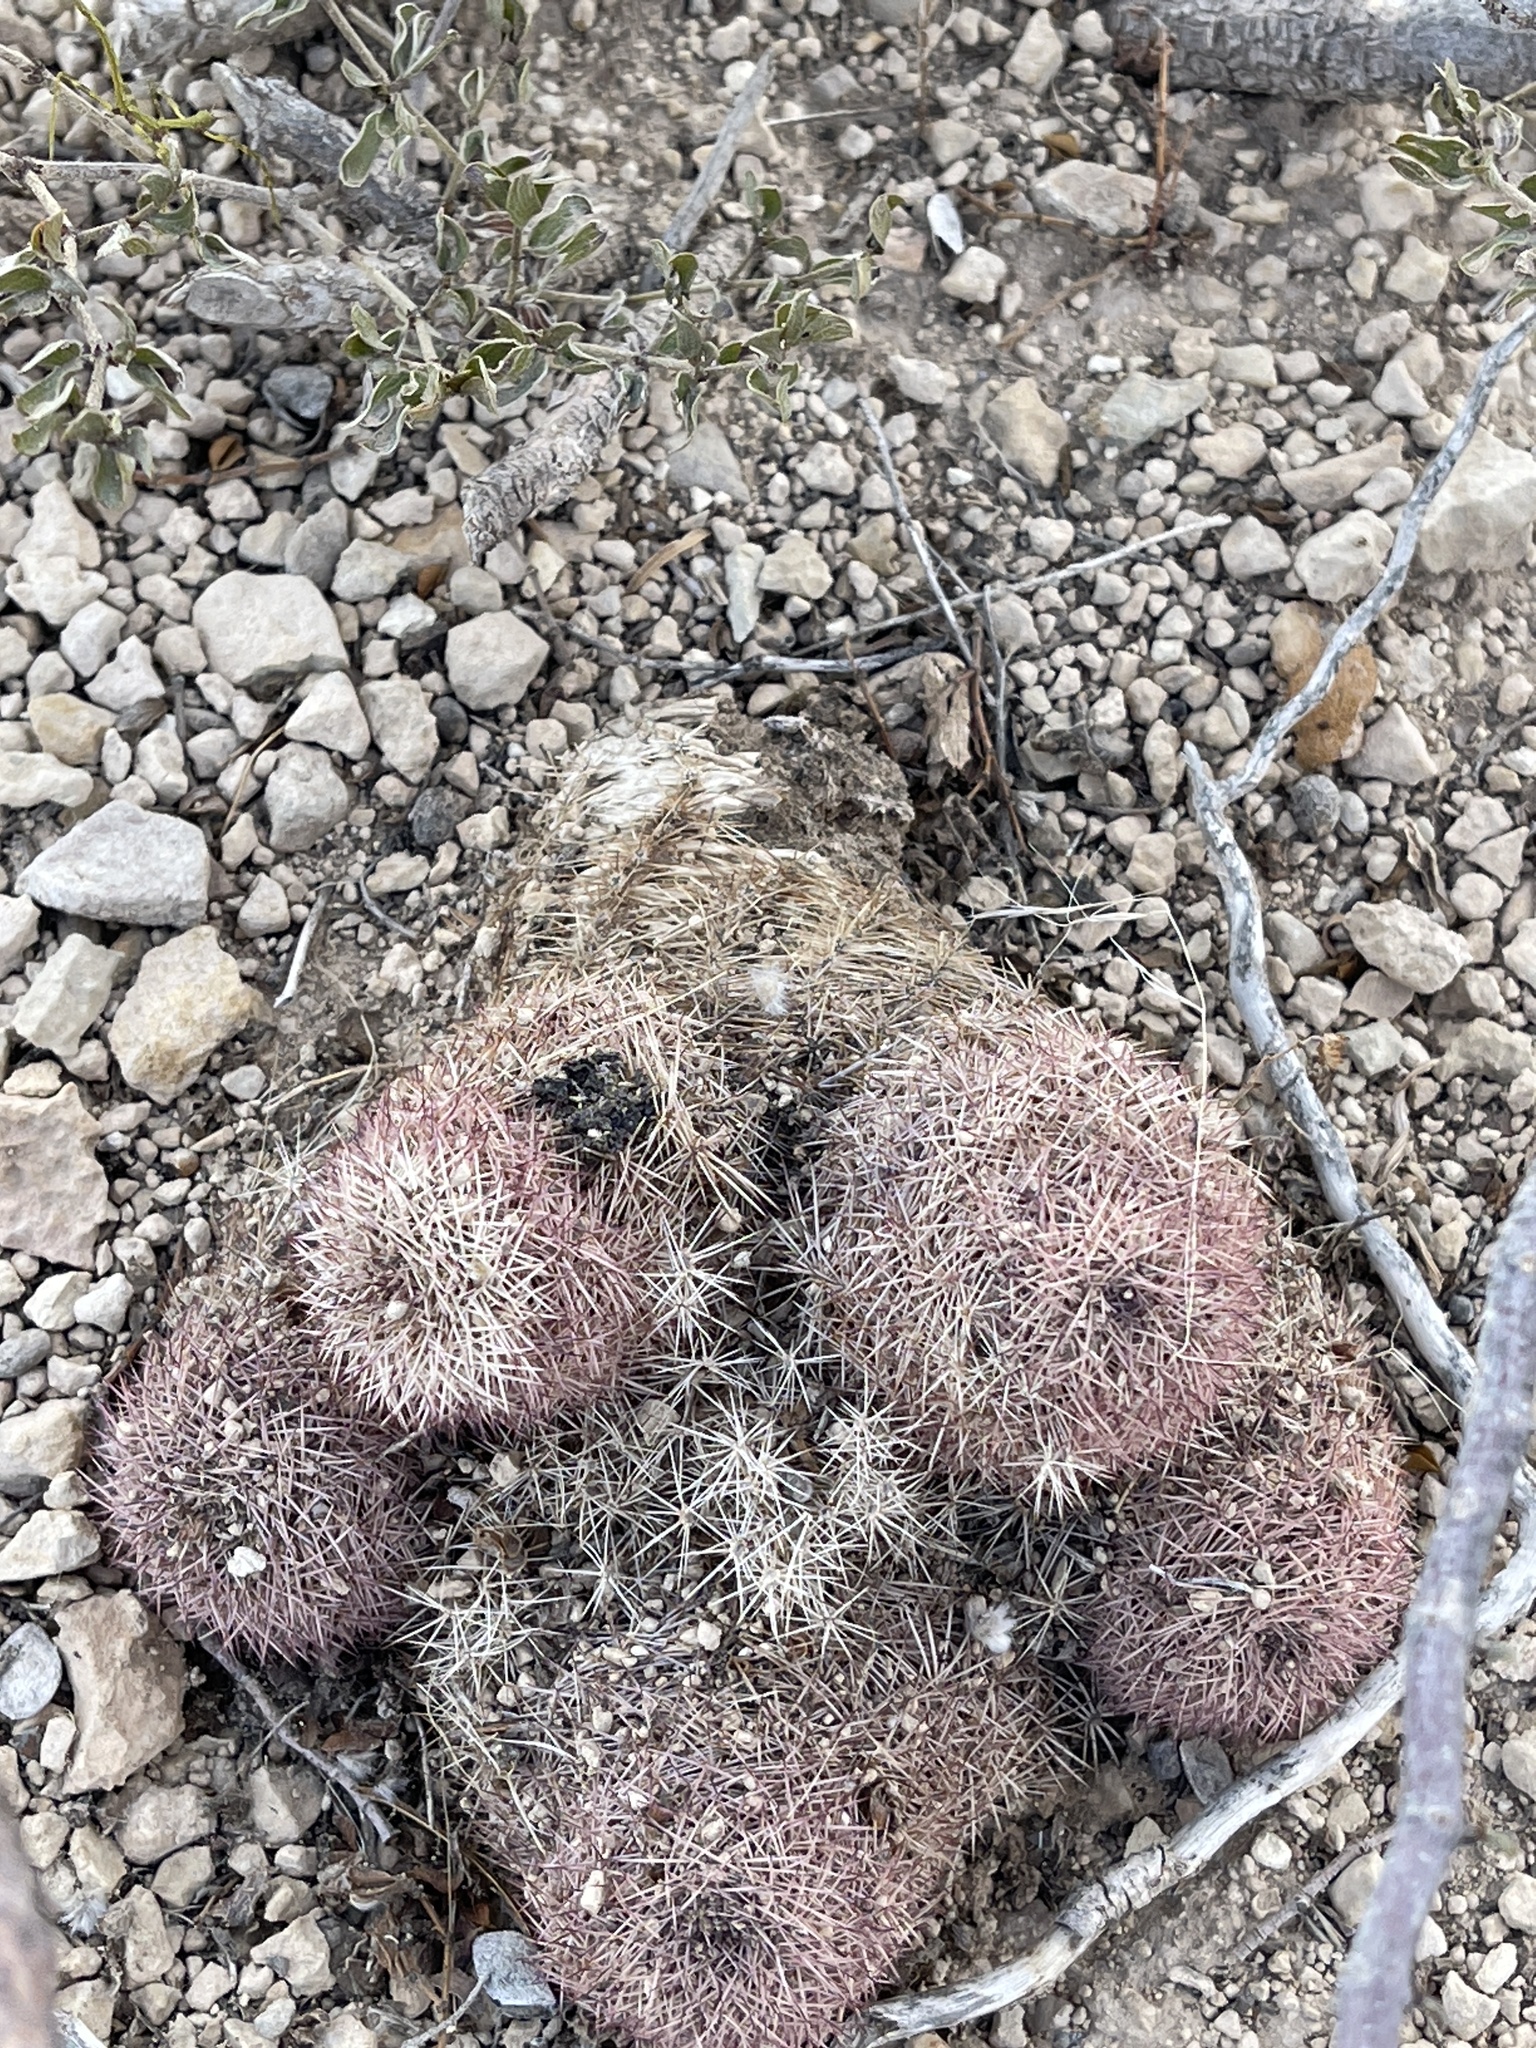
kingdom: Plantae
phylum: Tracheophyta
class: Magnoliopsida
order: Caryophyllales
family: Cactaceae
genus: Echinocereus
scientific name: Echinocereus dasyacanthus
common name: Spiny hedgehog cactus
